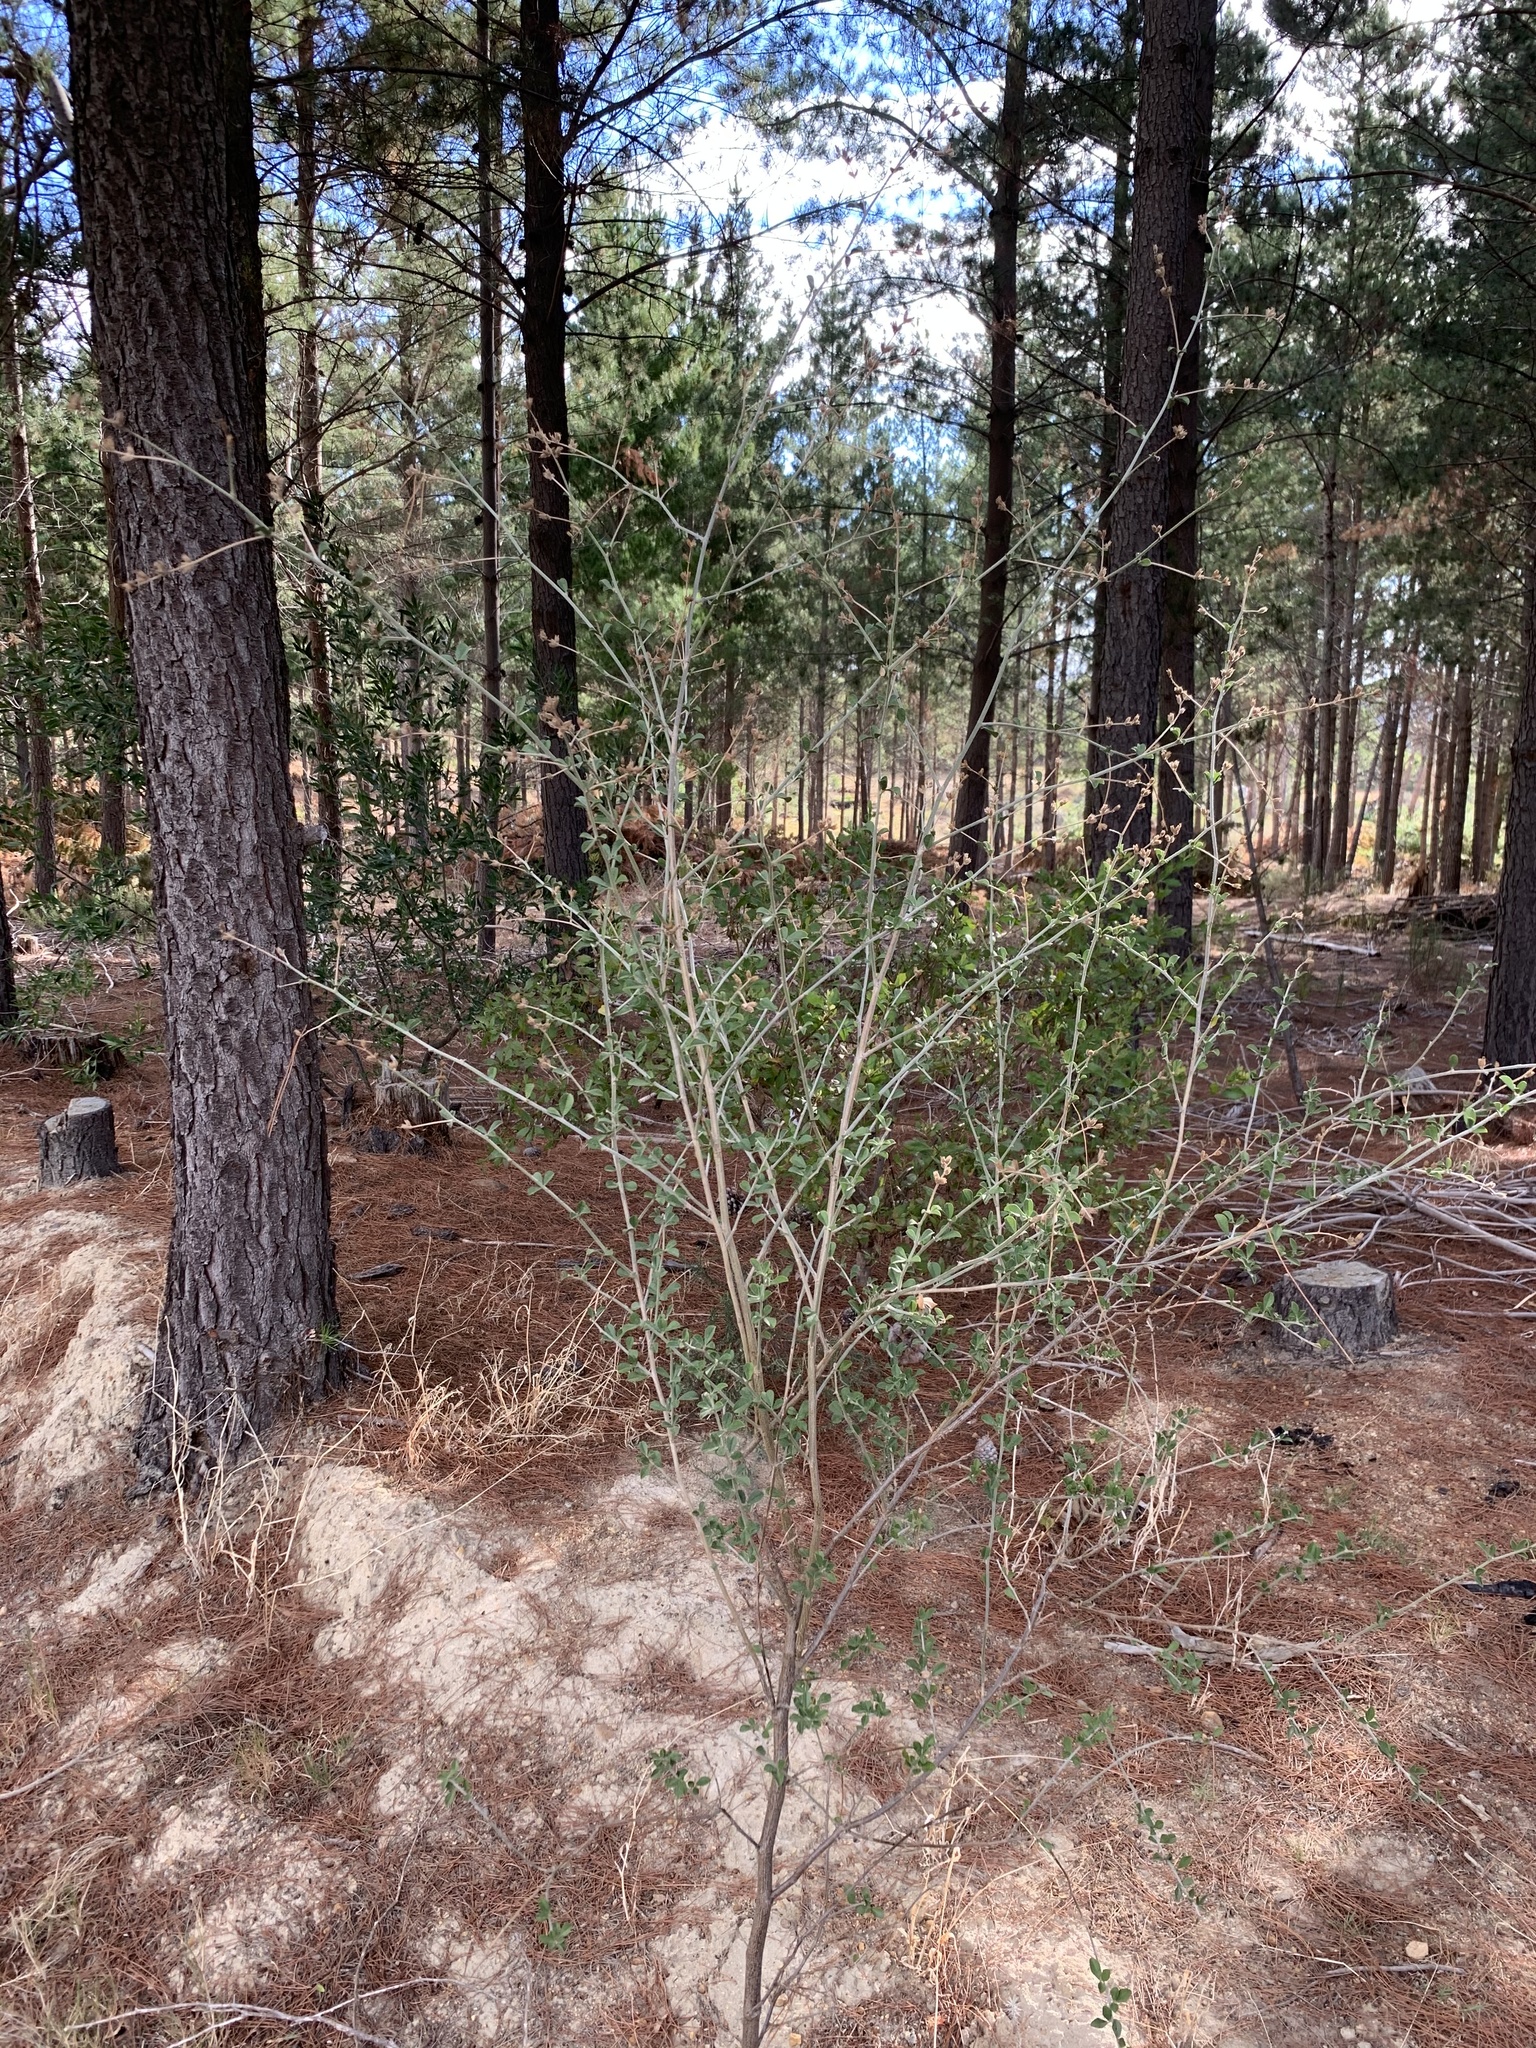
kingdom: Plantae
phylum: Tracheophyta
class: Magnoliopsida
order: Fabales
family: Fabaceae
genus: Psoralea
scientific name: Psoralea hirta
